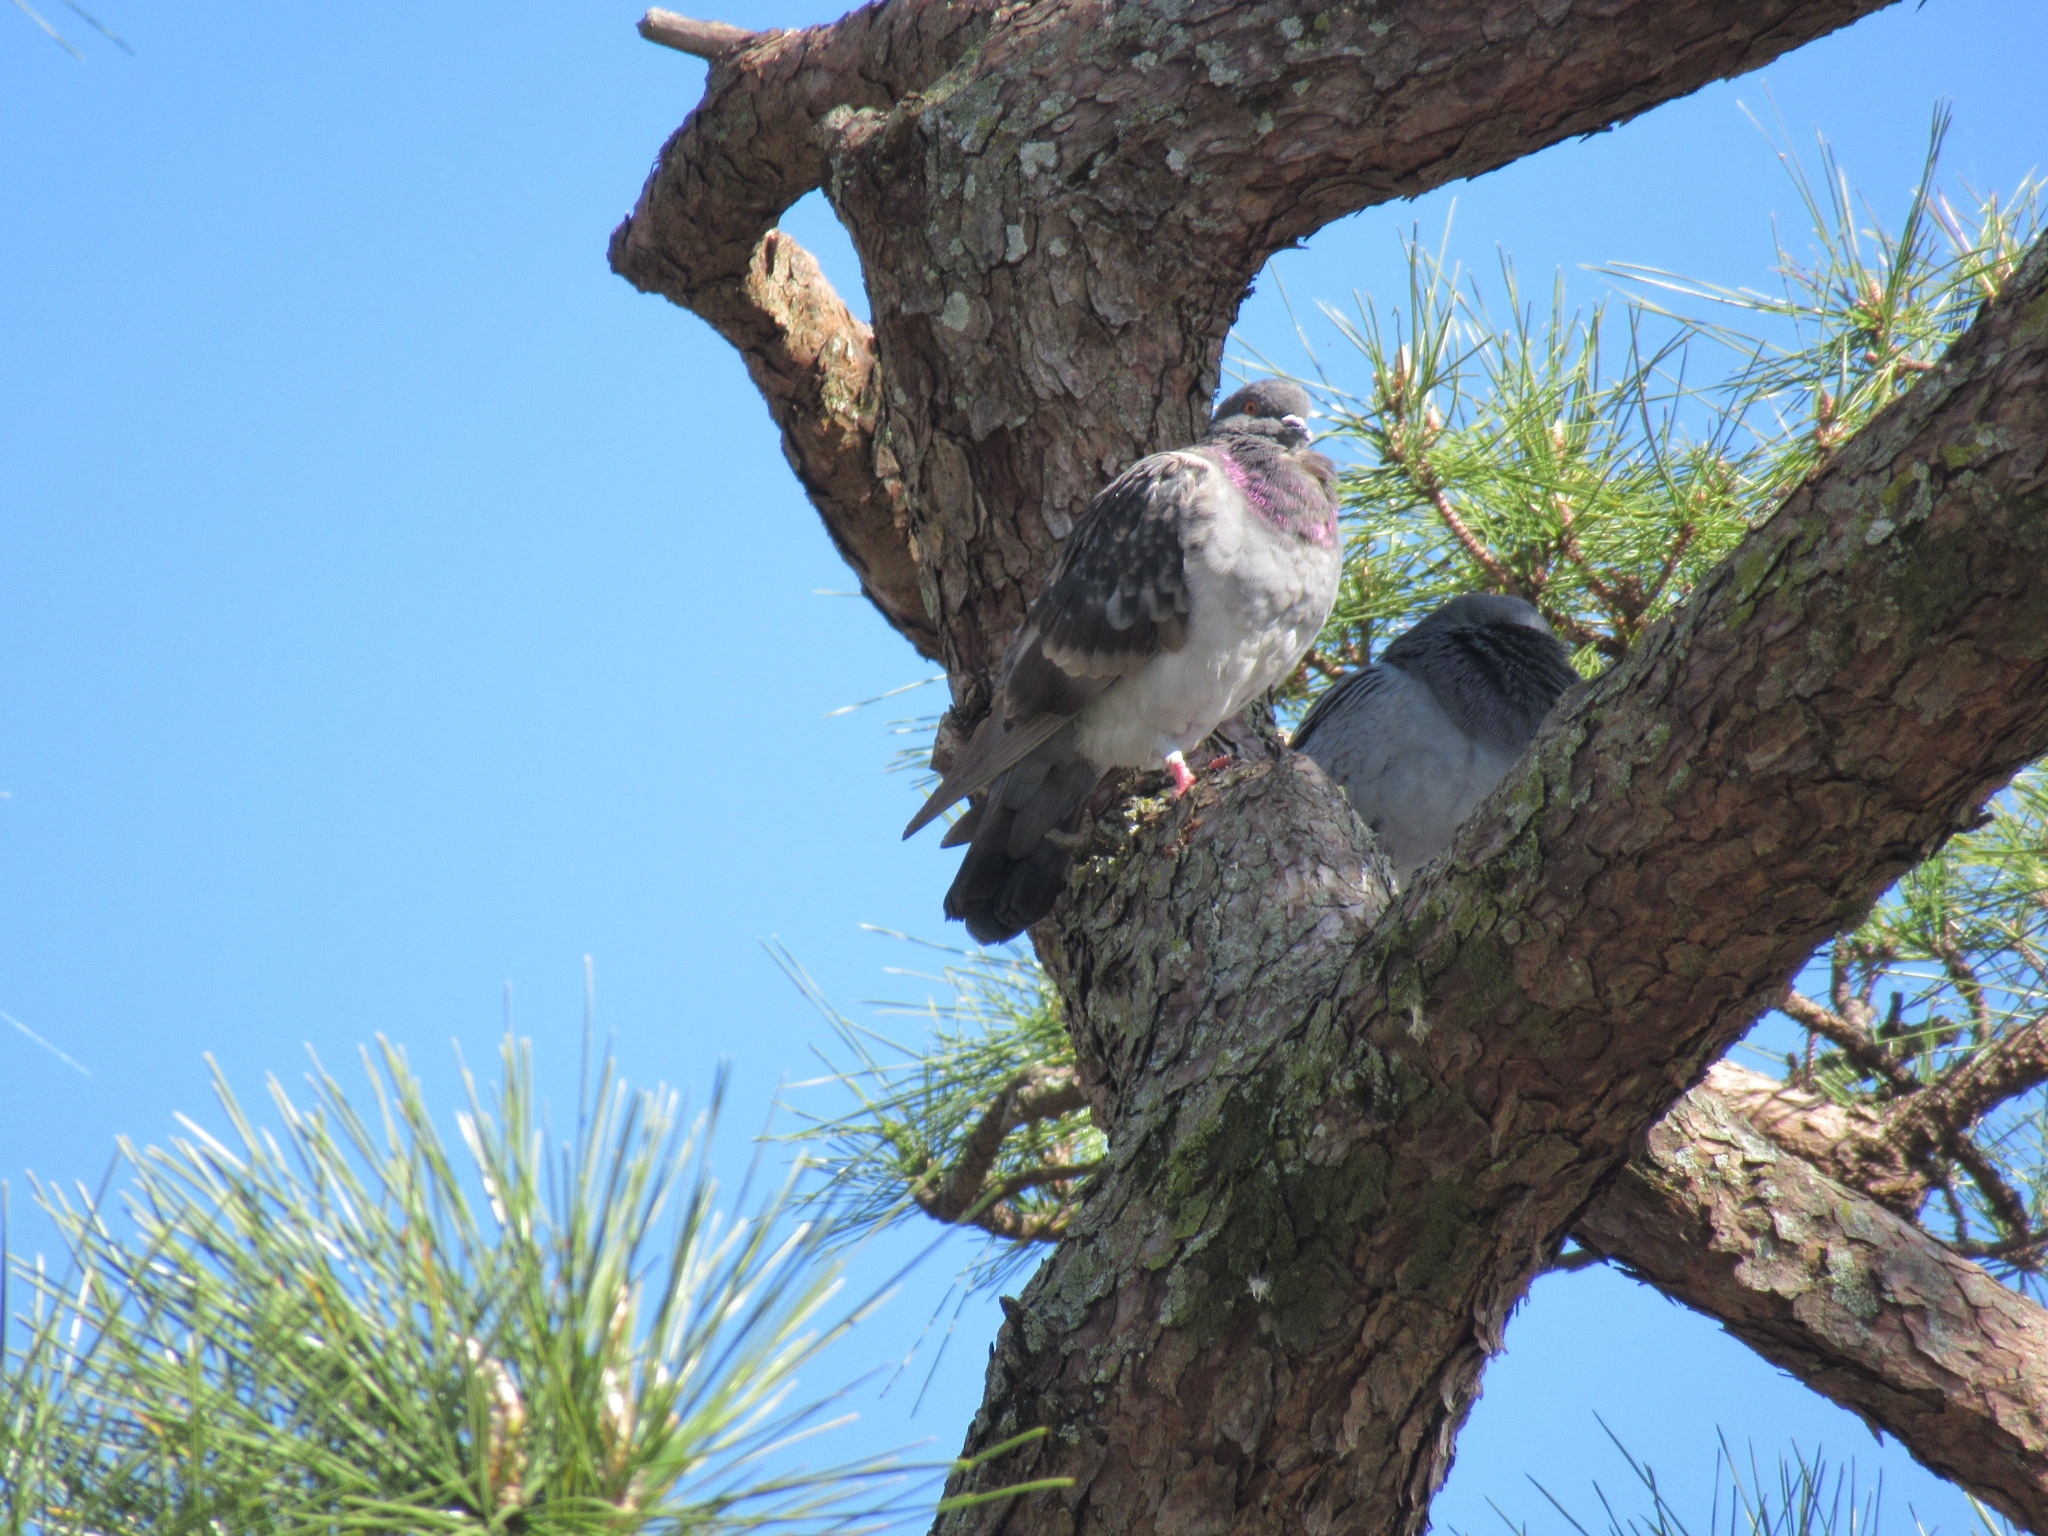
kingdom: Animalia
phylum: Chordata
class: Aves
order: Columbiformes
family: Columbidae
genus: Columba
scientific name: Columba livia
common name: Rock pigeon
